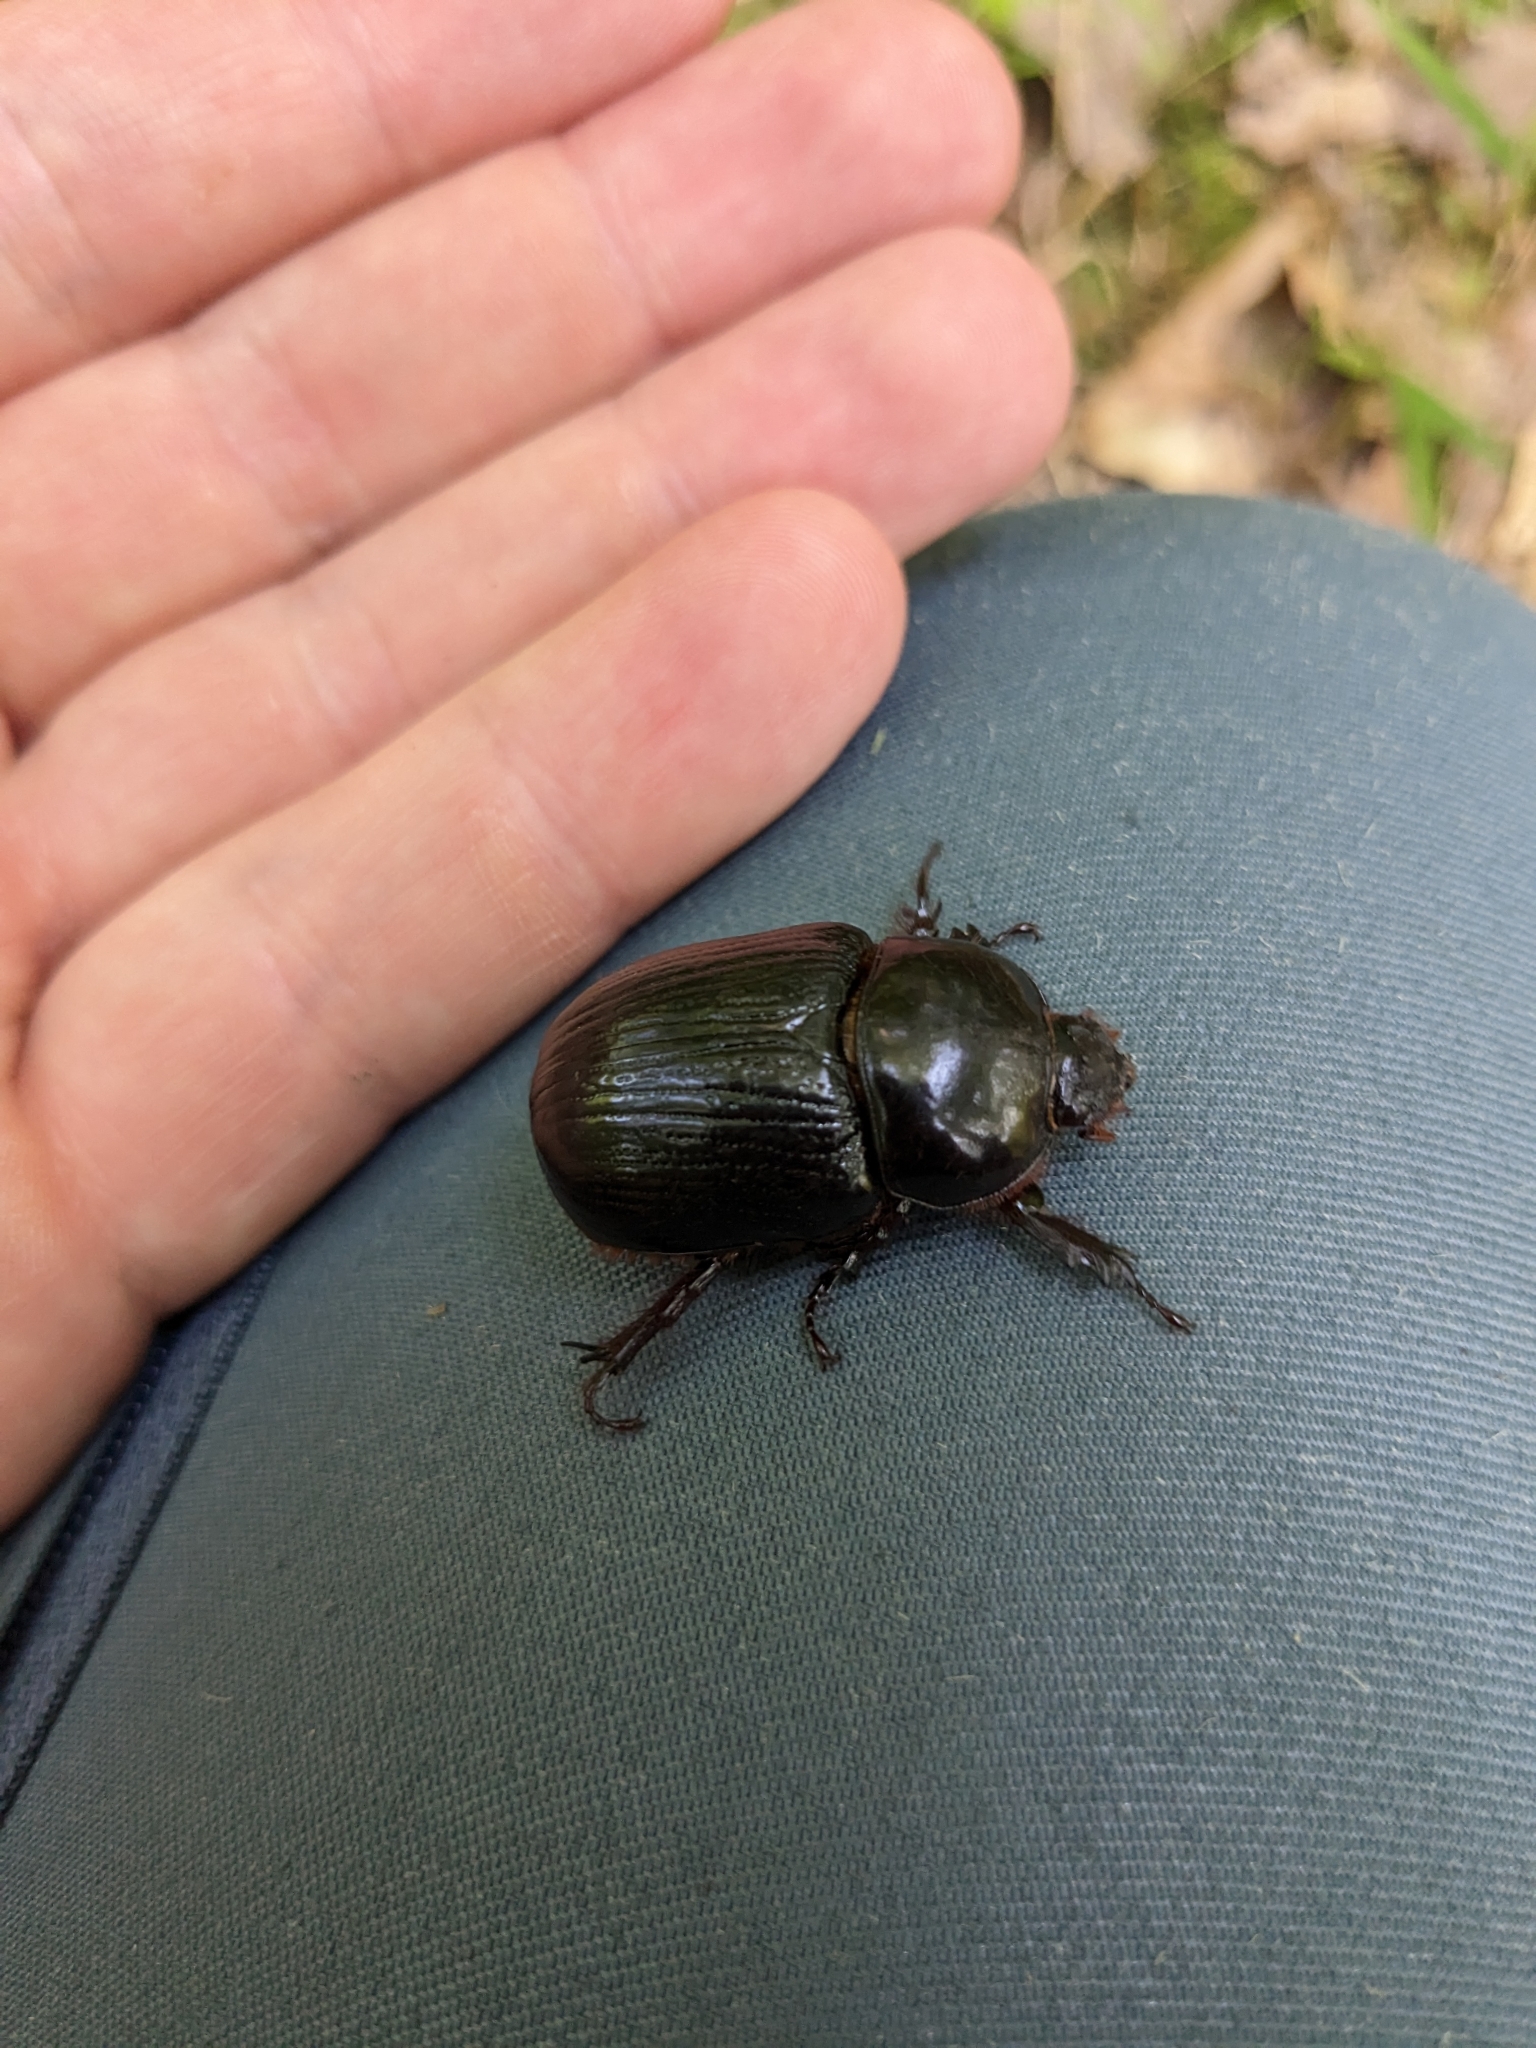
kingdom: Animalia
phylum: Arthropoda
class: Insecta
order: Coleoptera
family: Scarabaeidae
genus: Xyloryctes
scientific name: Xyloryctes jamaicensis
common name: Eastern rhinoceros beetle
